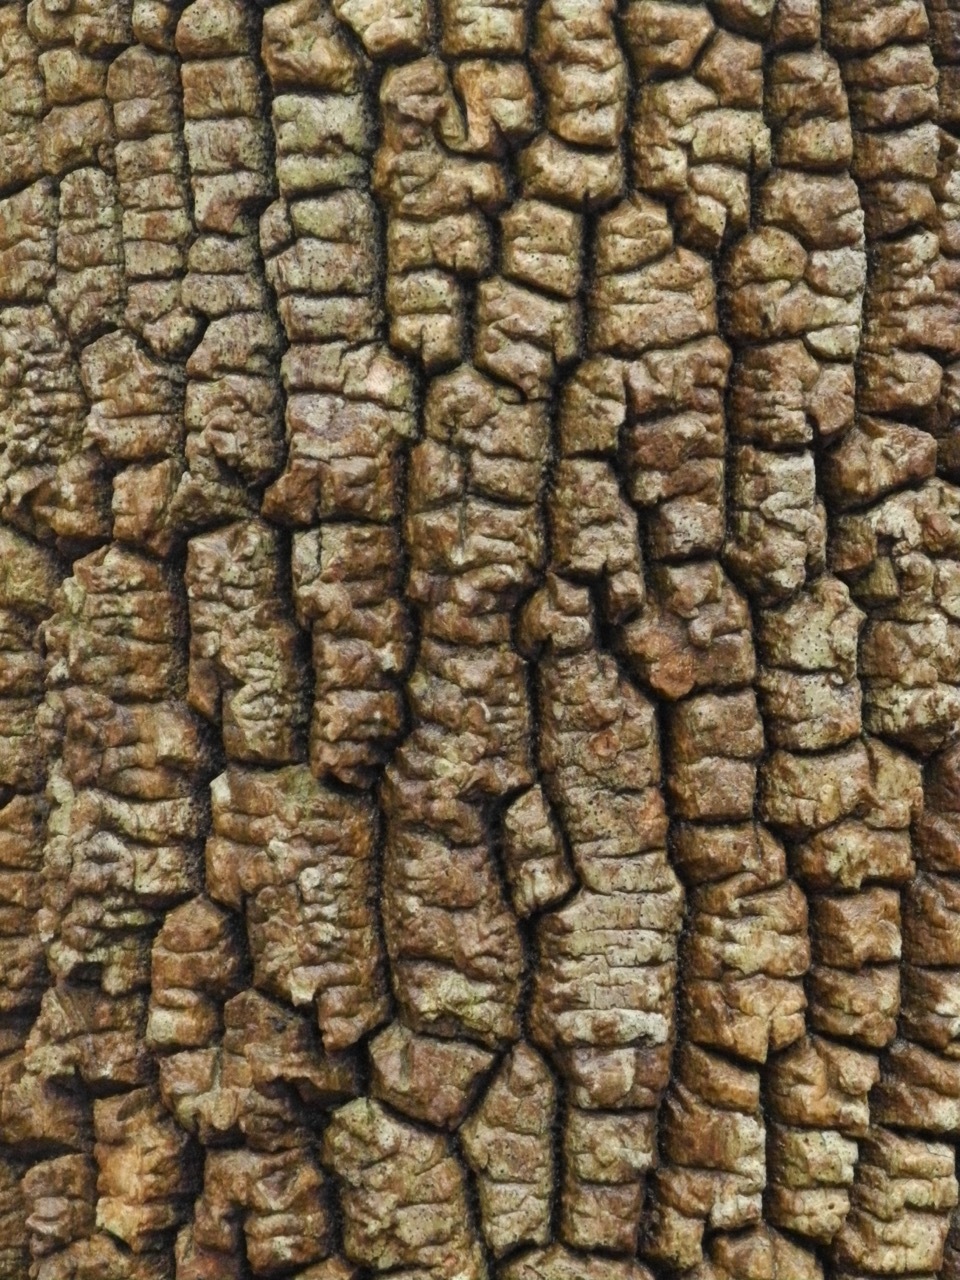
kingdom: Plantae
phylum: Tracheophyta
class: Magnoliopsida
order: Cornales
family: Nyssaceae
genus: Nyssa
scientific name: Nyssa sylvatica
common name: Black tupelo
